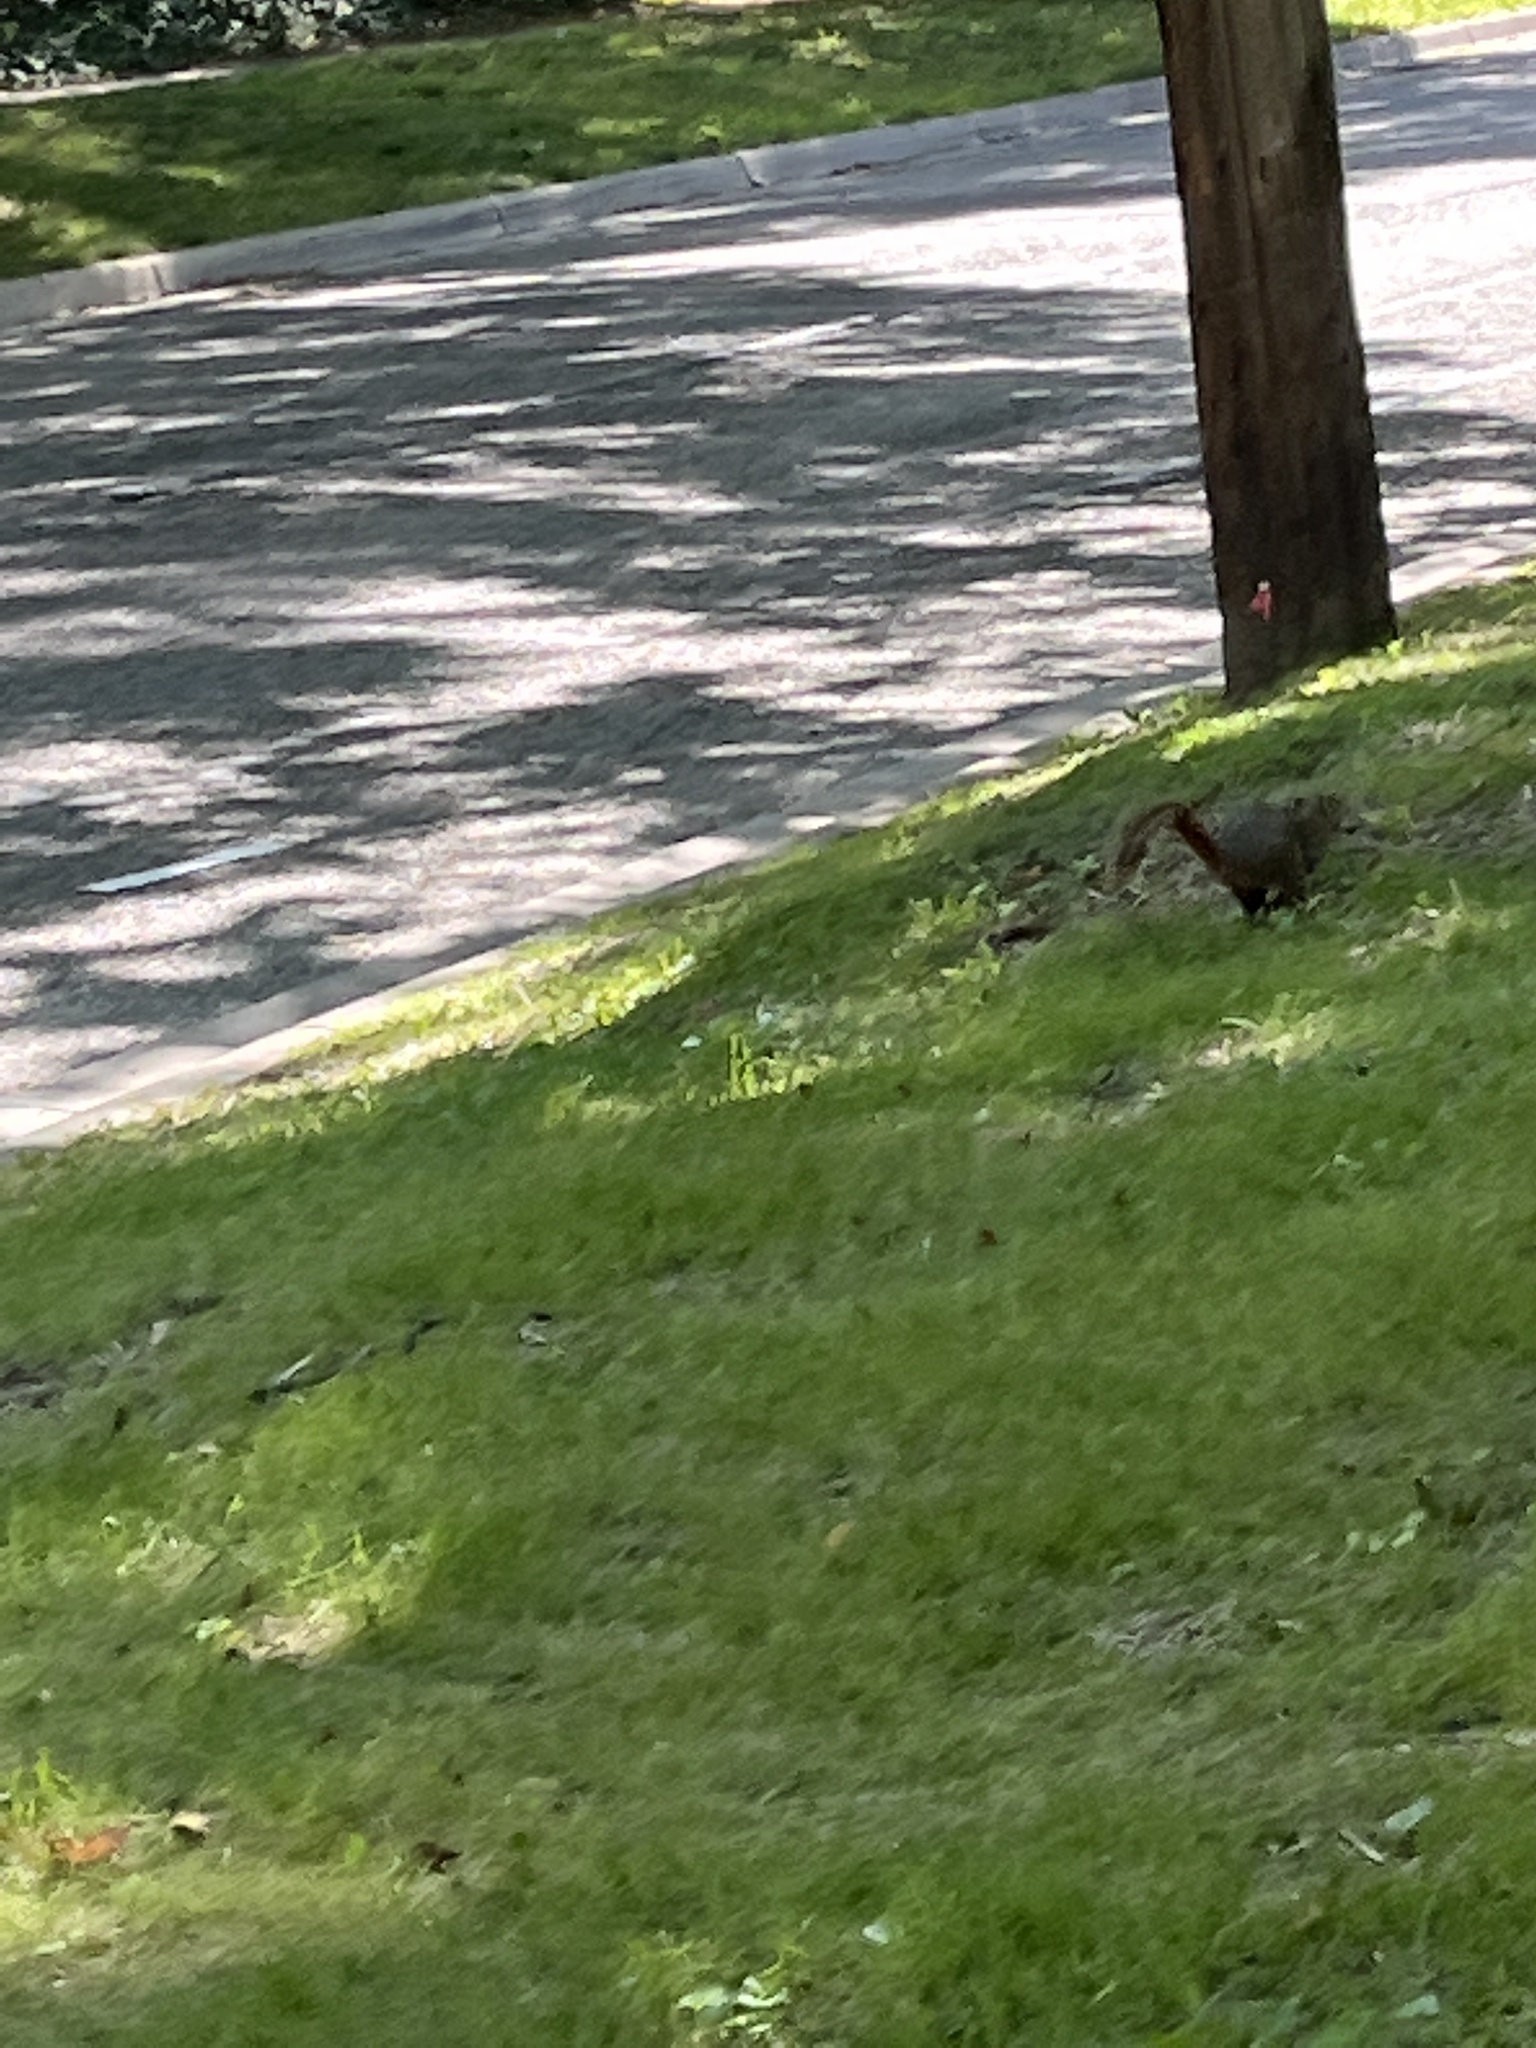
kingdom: Animalia
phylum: Chordata
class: Mammalia
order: Rodentia
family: Sciuridae
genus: Sciurus
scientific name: Sciurus niger
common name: Fox squirrel
